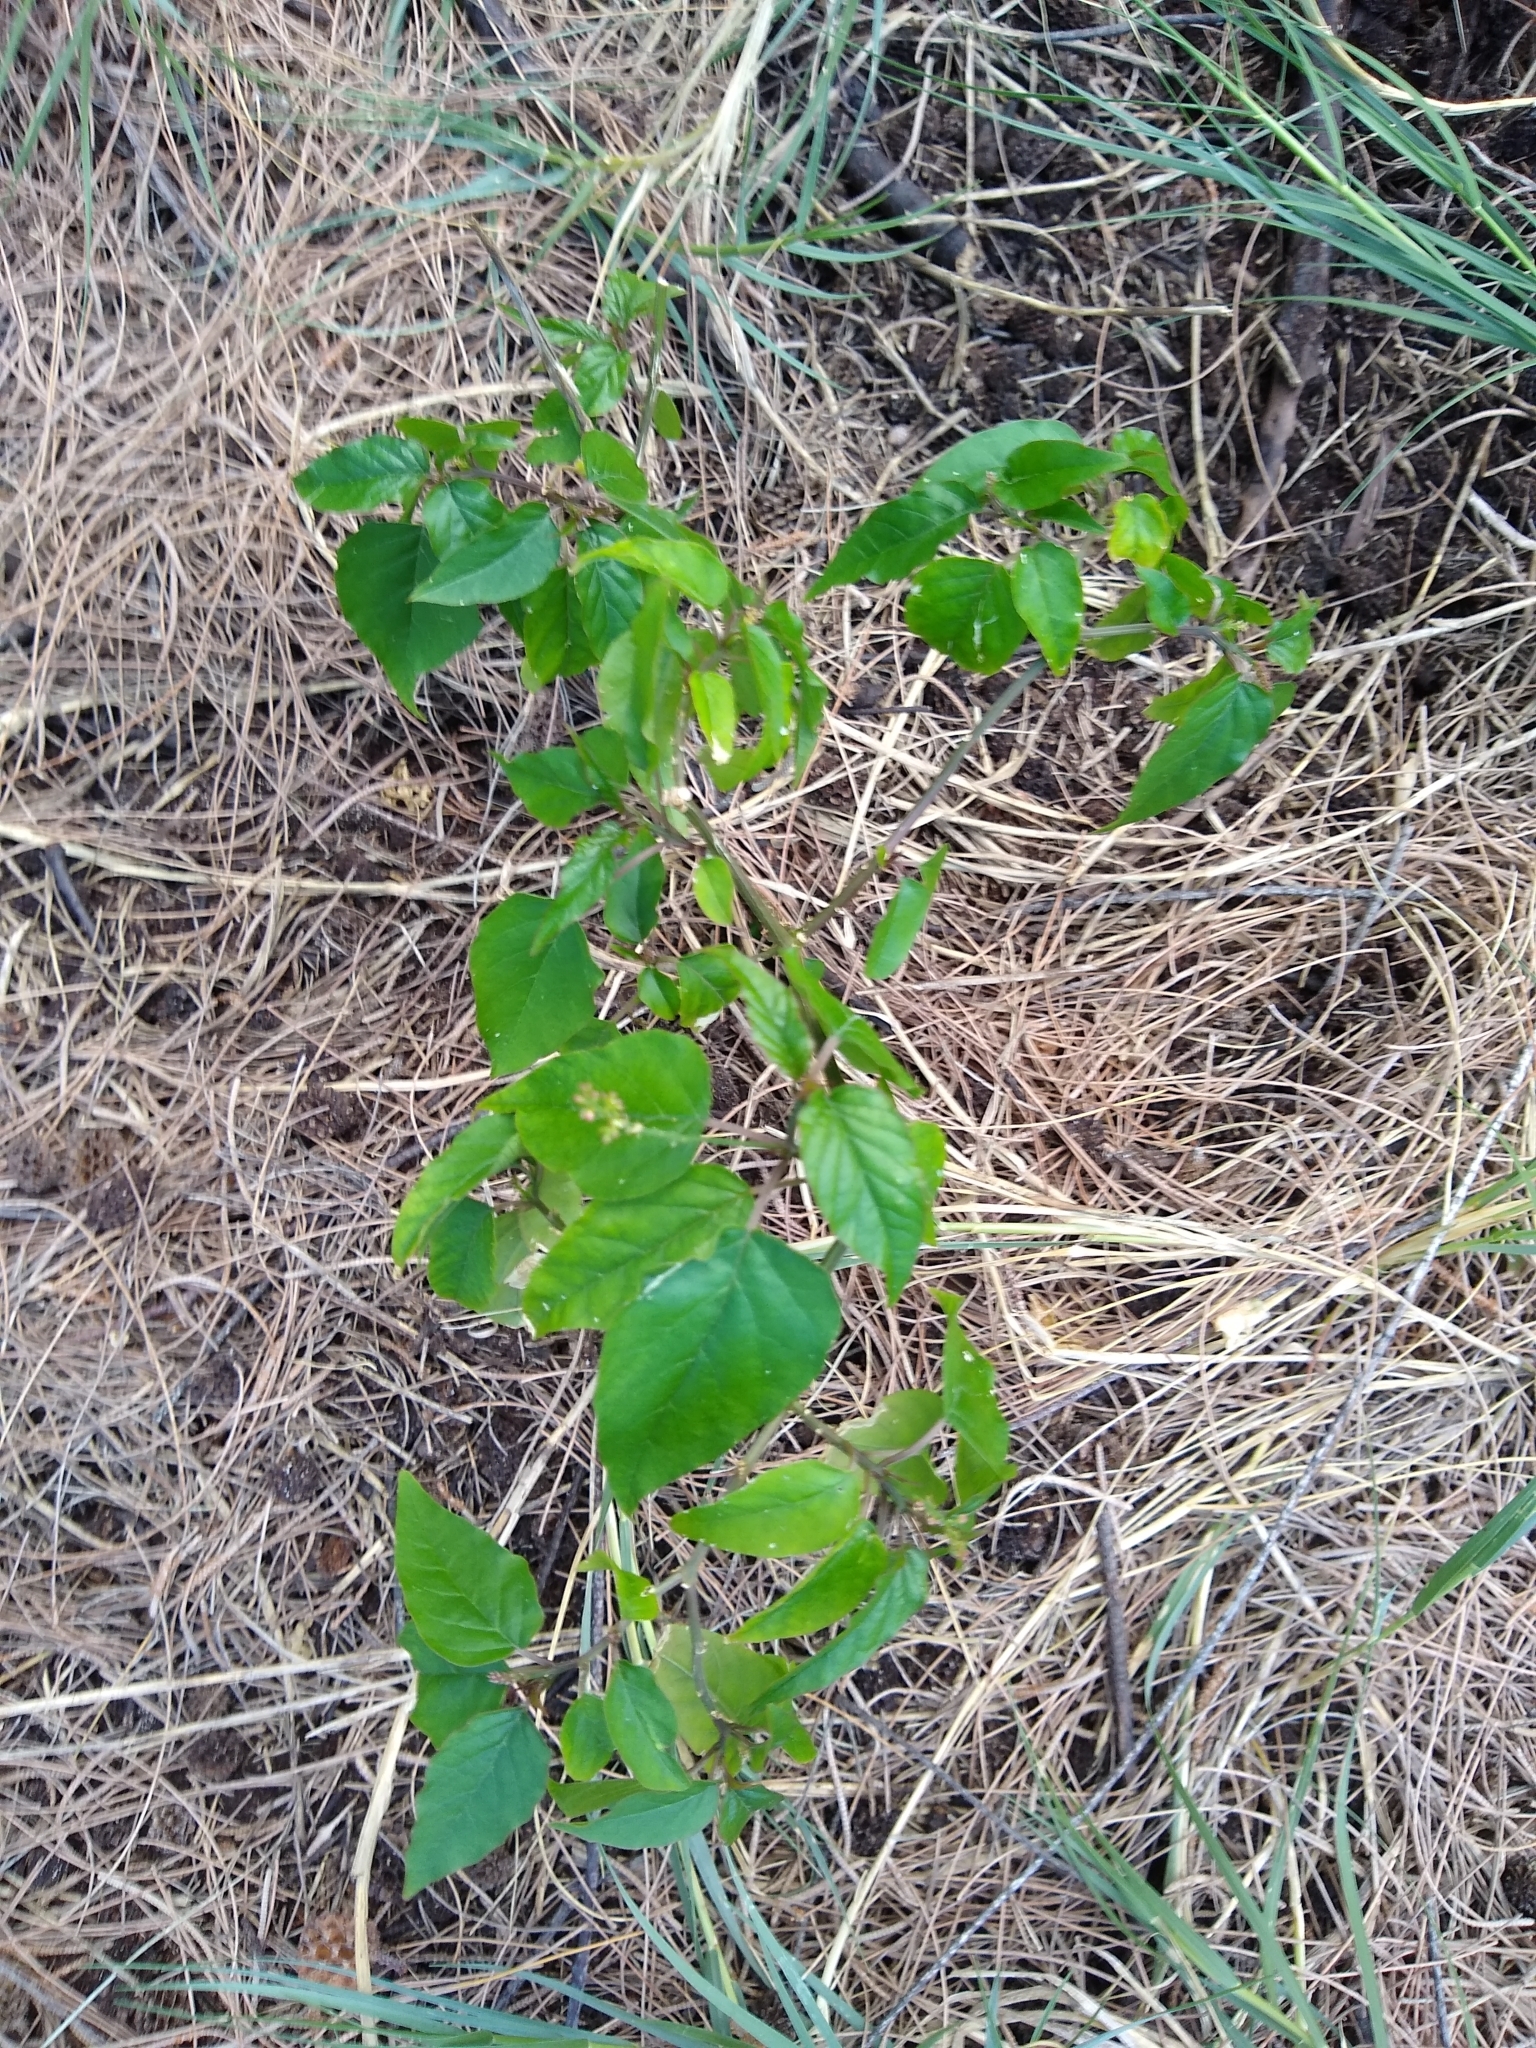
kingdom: Plantae
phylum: Tracheophyta
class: Magnoliopsida
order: Caryophyllales
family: Phytolaccaceae
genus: Rivina
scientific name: Rivina humilis
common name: Rougeplant
